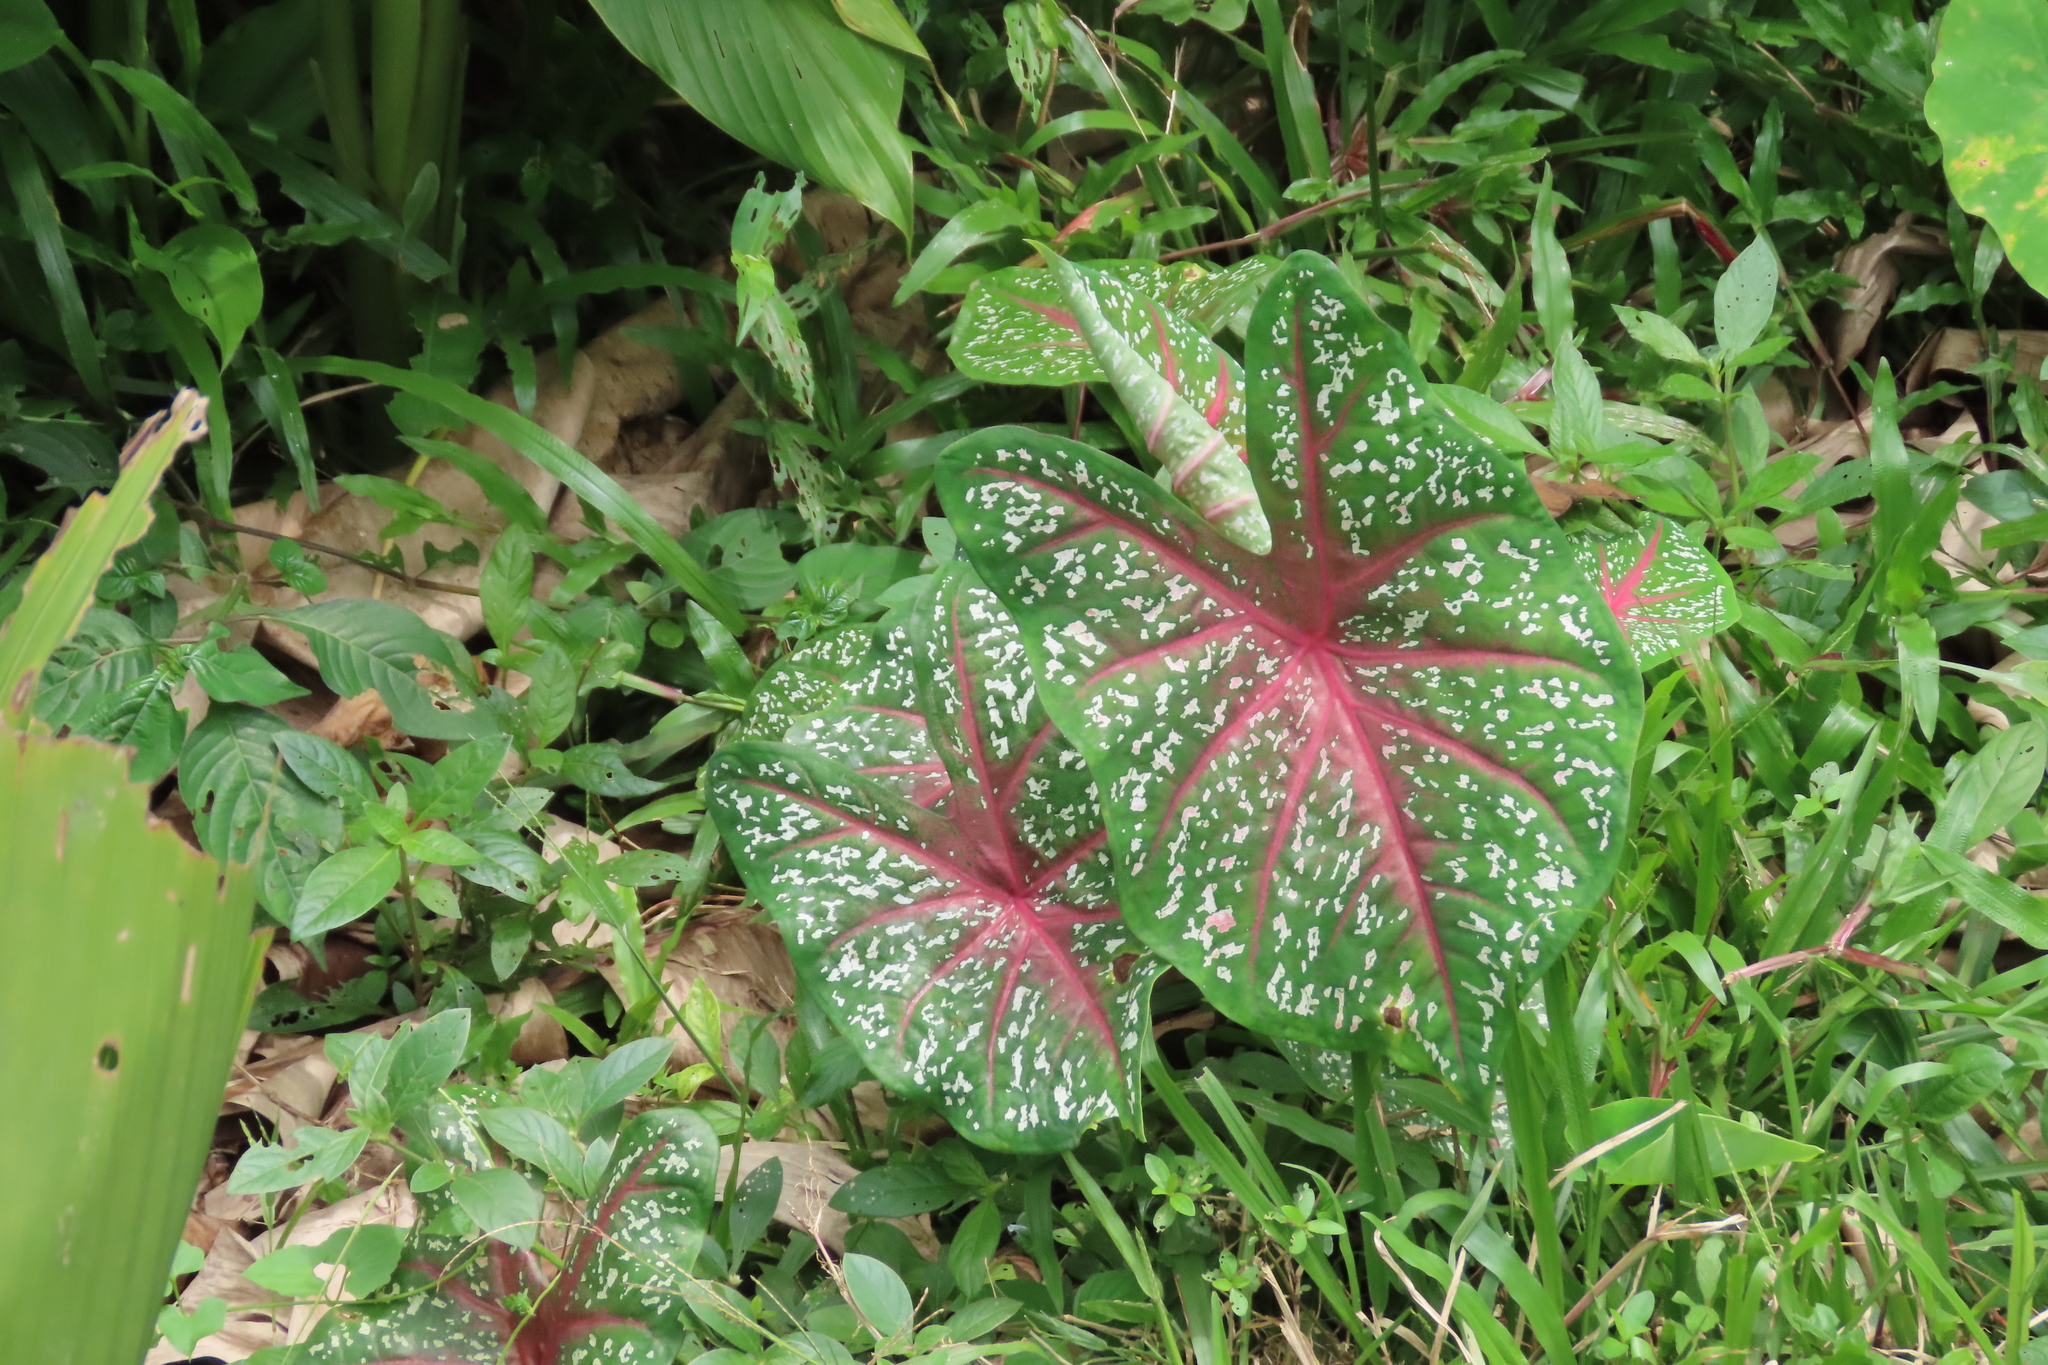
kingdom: Plantae
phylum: Tracheophyta
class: Liliopsida
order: Alismatales
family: Araceae
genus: Caladium
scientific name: Caladium bicolor
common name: Artist's pallet
